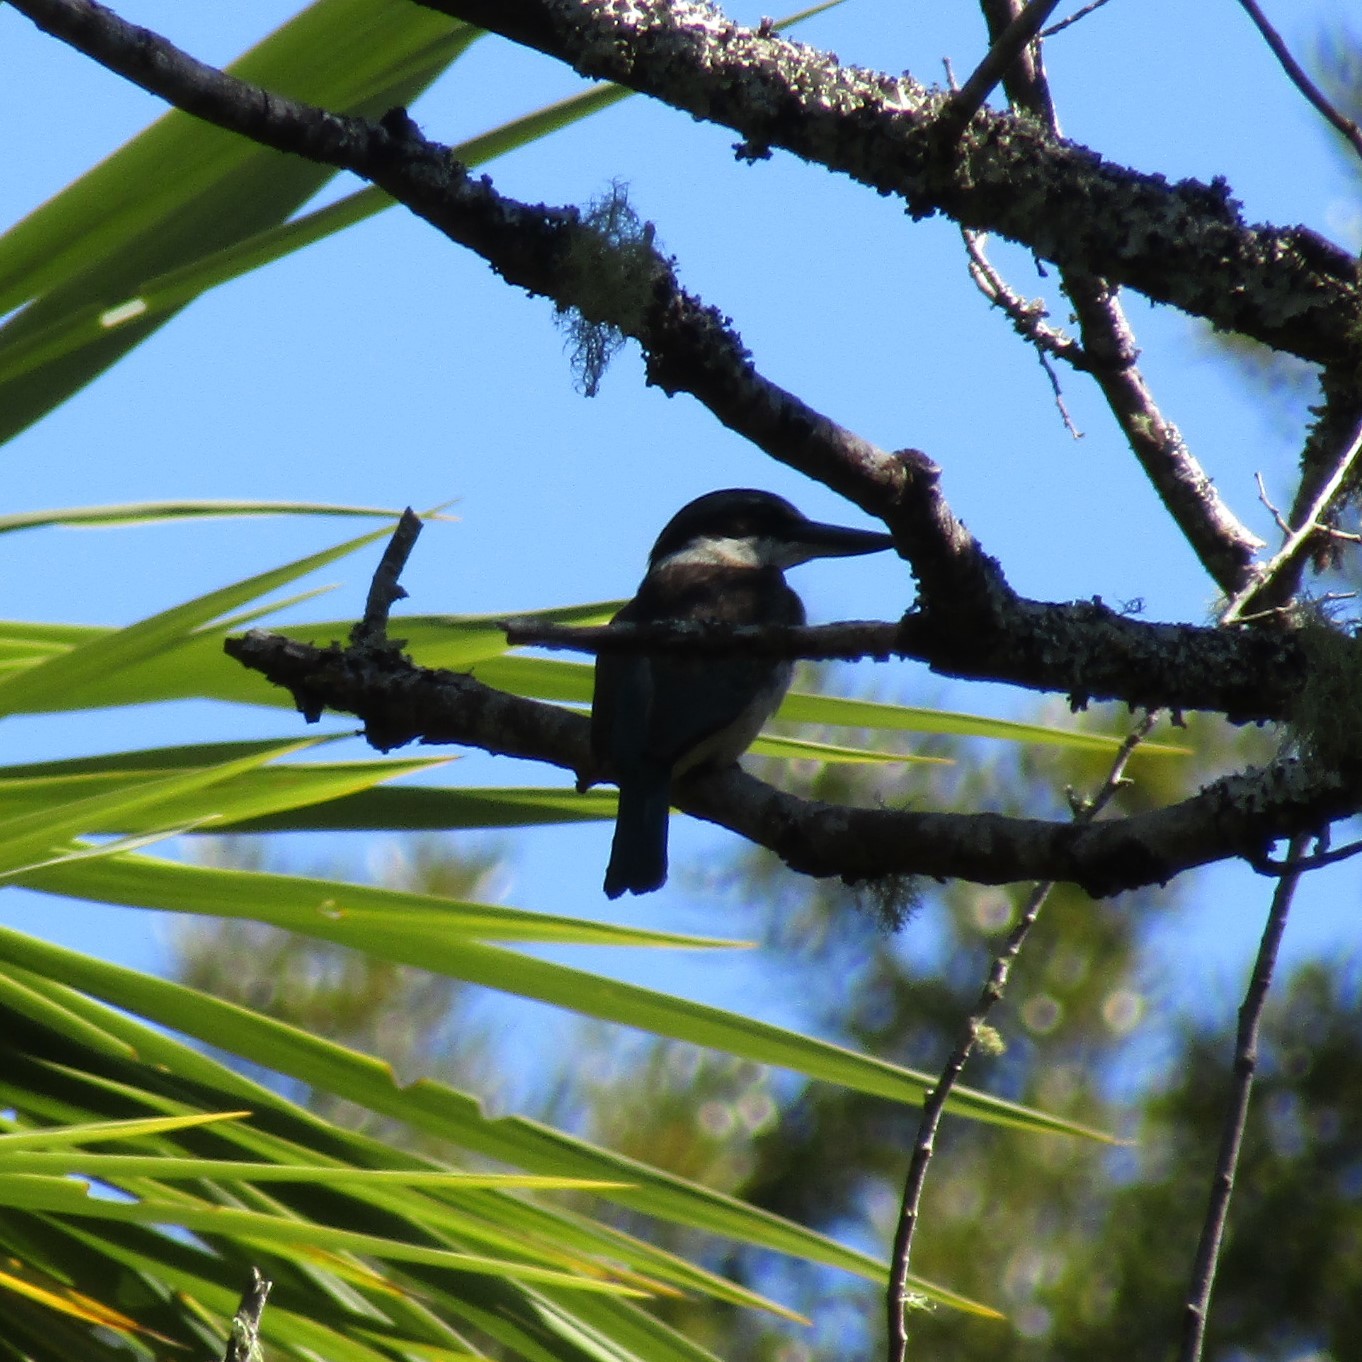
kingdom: Animalia
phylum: Chordata
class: Aves
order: Coraciiformes
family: Alcedinidae
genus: Todiramphus
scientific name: Todiramphus sanctus
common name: Sacred kingfisher
